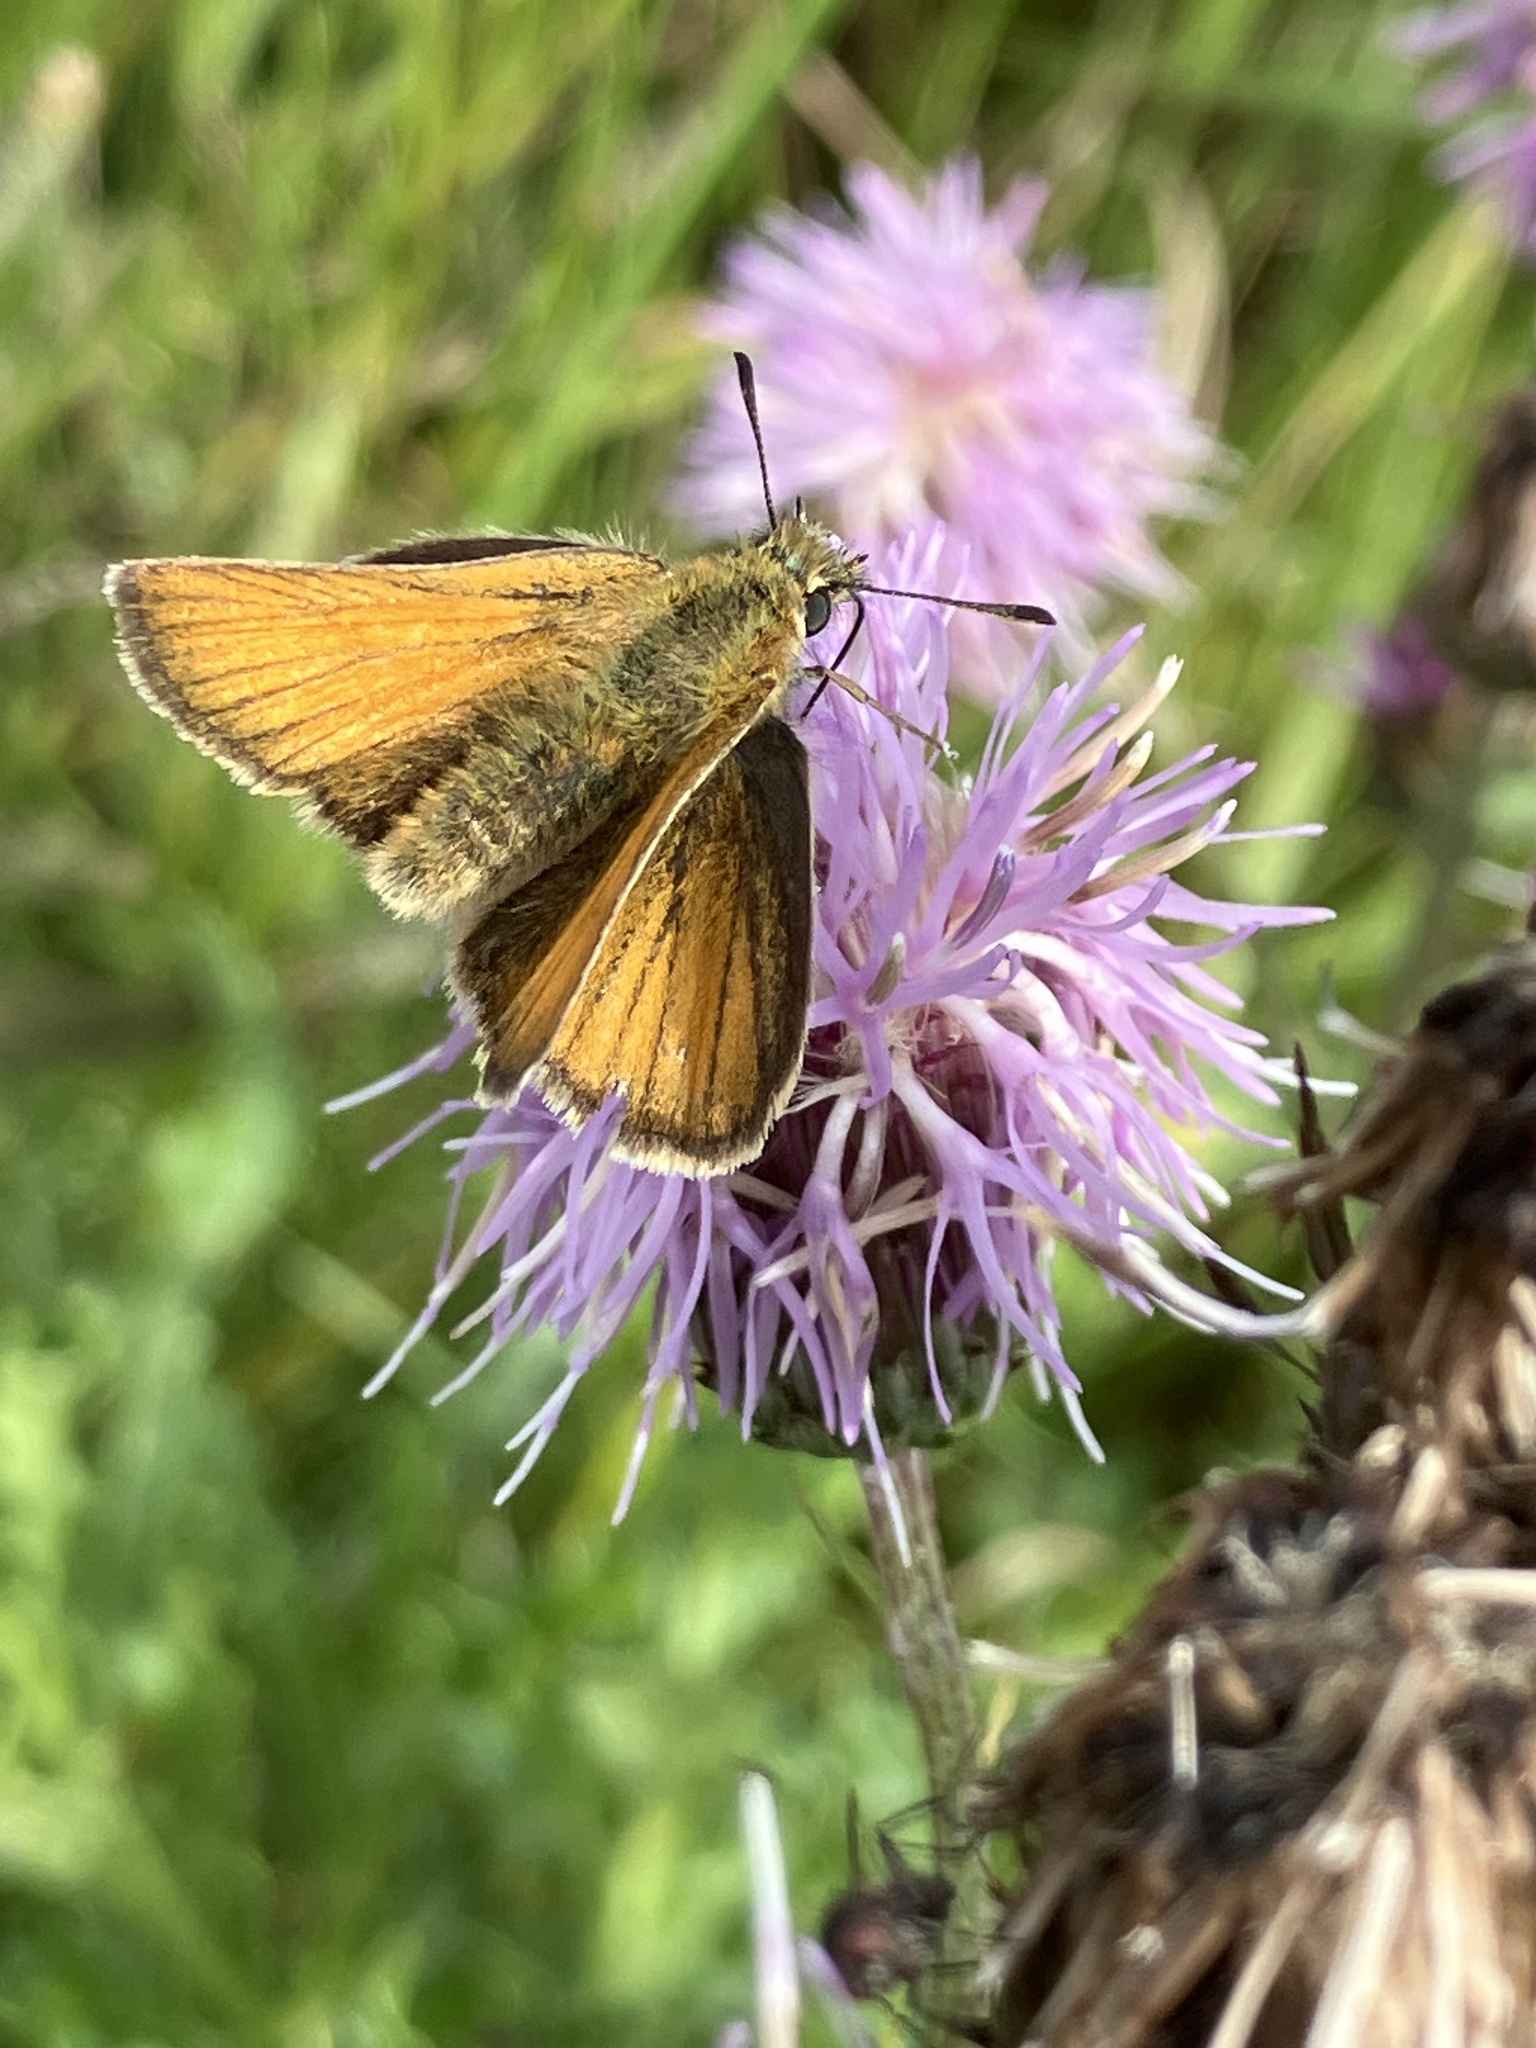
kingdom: Animalia
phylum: Arthropoda
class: Insecta
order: Lepidoptera
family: Hesperiidae
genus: Thymelicus
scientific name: Thymelicus sylvestris
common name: Small skipper
